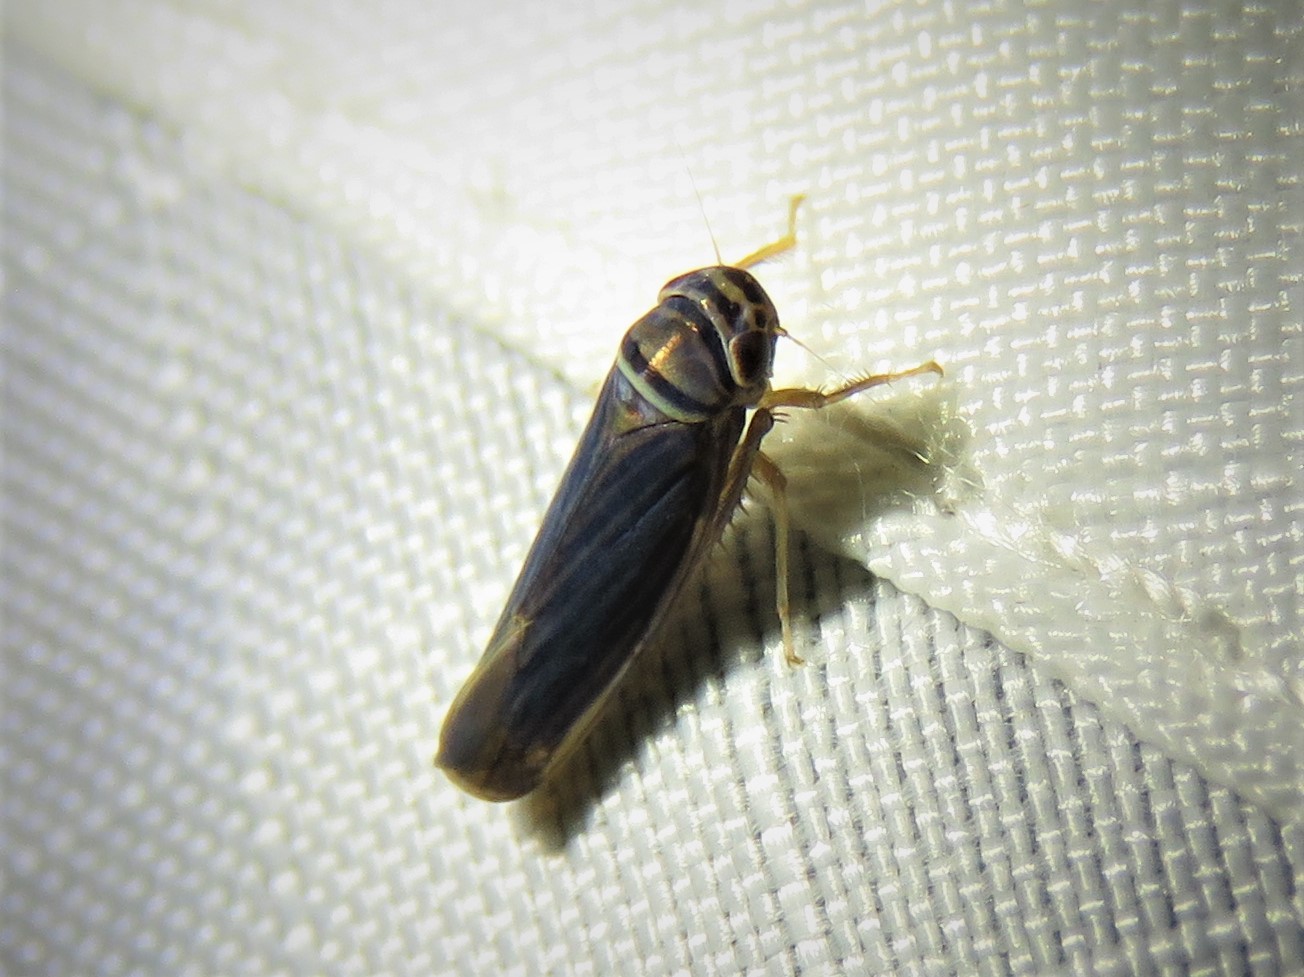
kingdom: Animalia
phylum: Arthropoda
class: Insecta
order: Hemiptera
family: Cicadellidae
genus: Tylozygus
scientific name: Tylozygus bifidus
